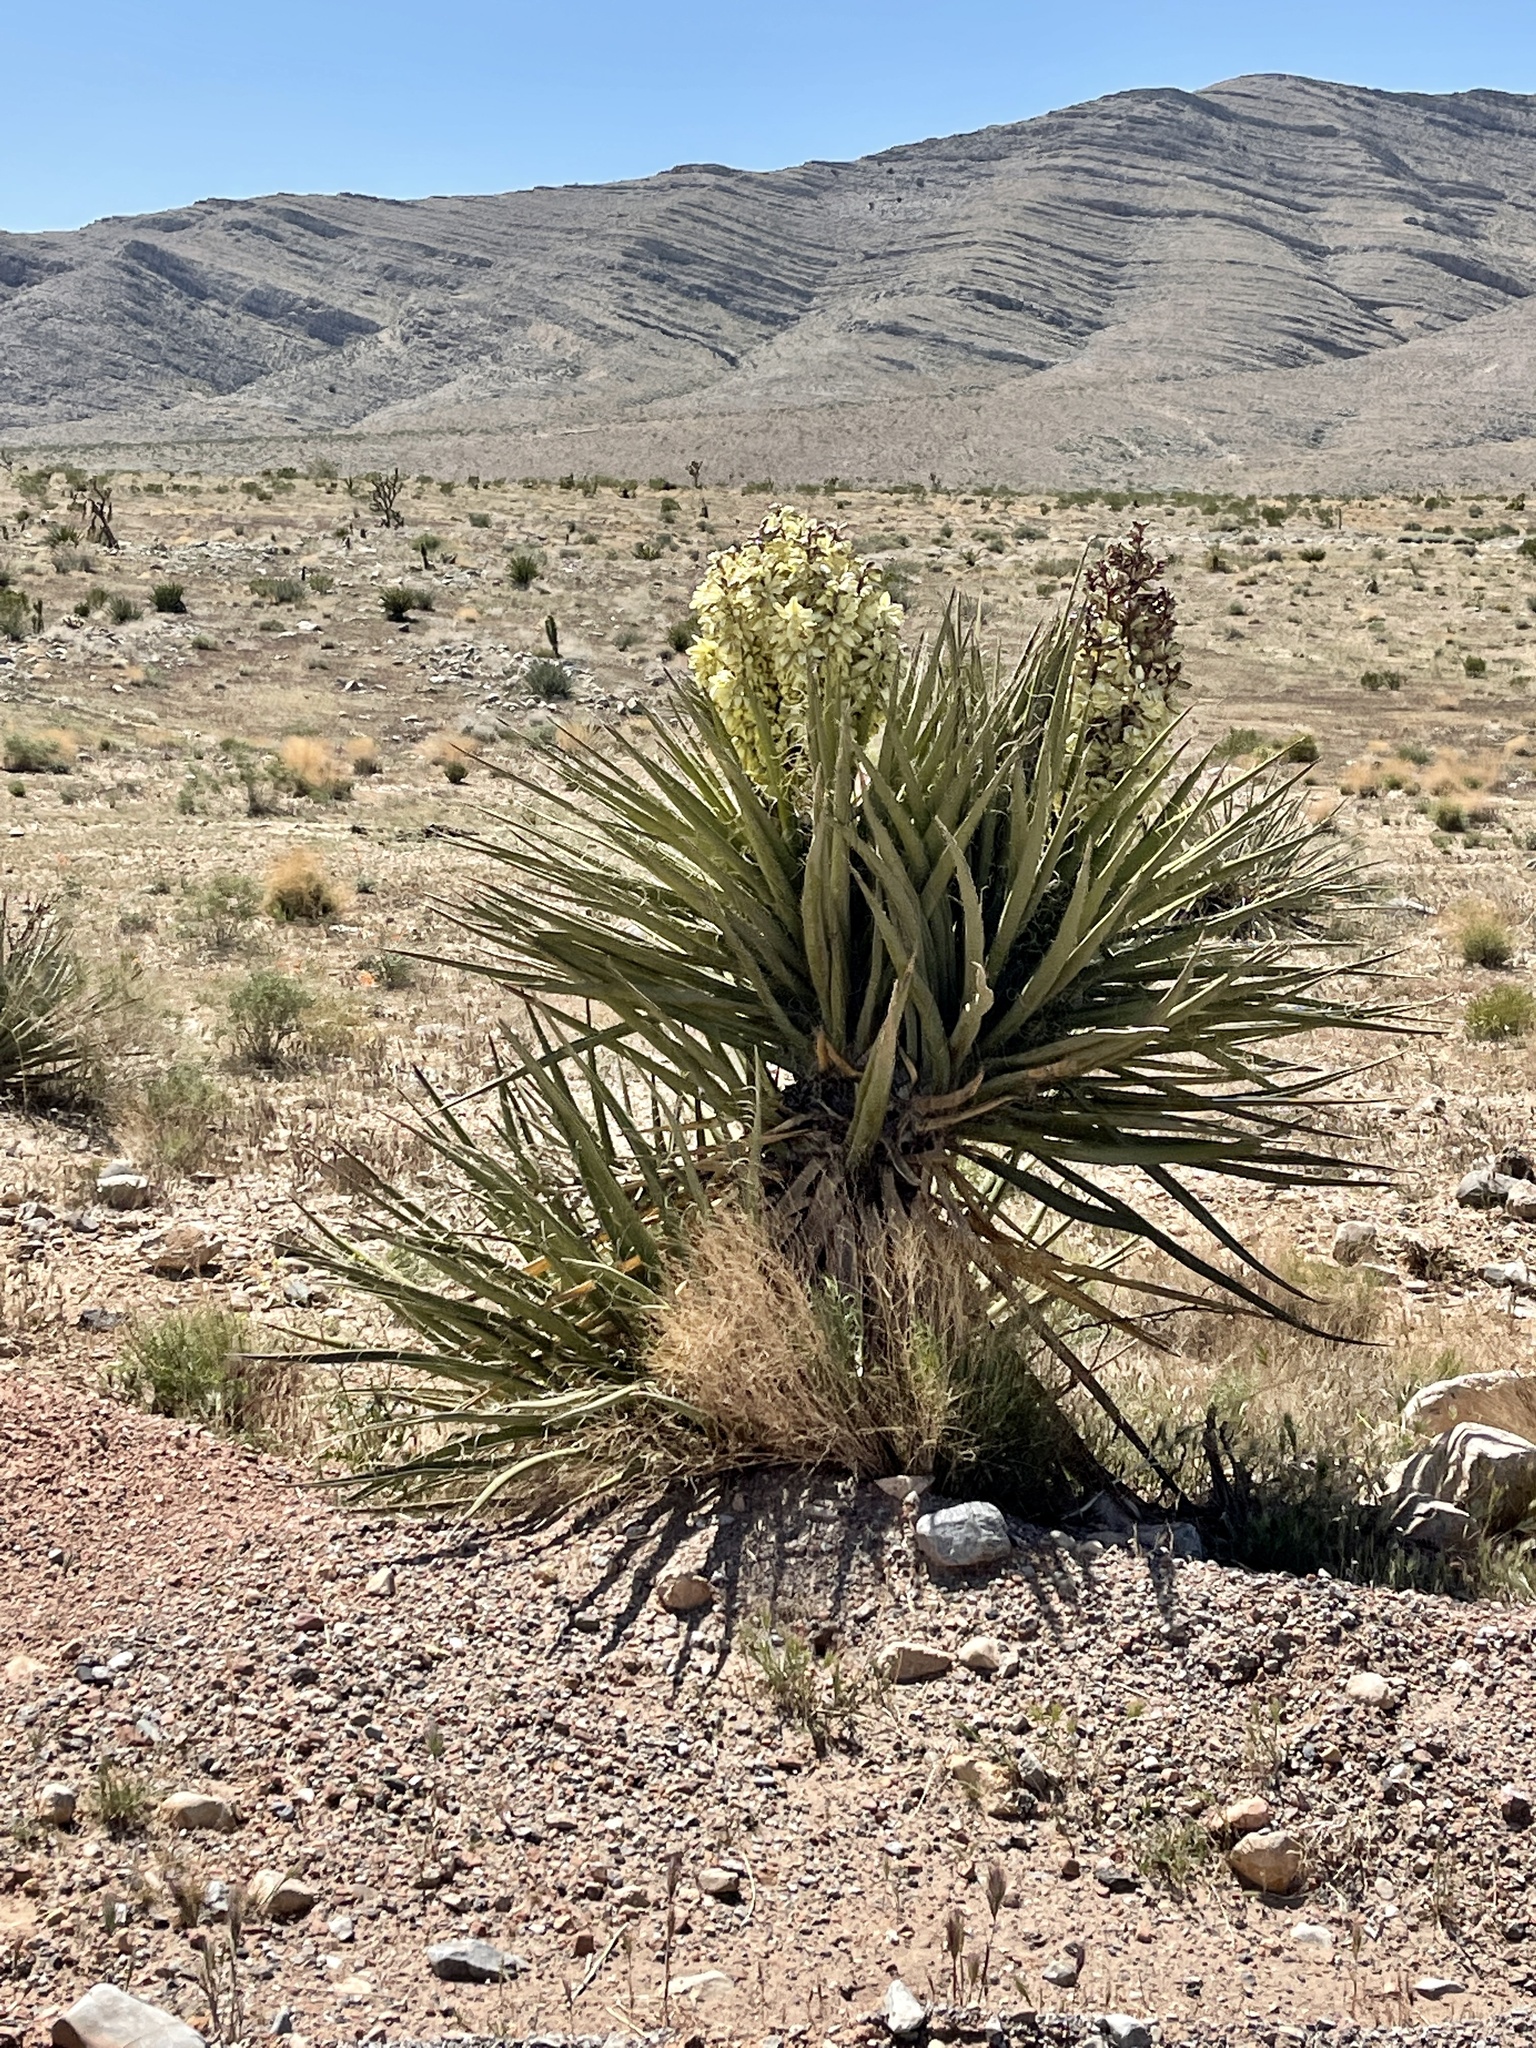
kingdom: Plantae
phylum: Tracheophyta
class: Liliopsida
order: Asparagales
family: Asparagaceae
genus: Yucca
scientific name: Yucca schidigera
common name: Mojave yucca
